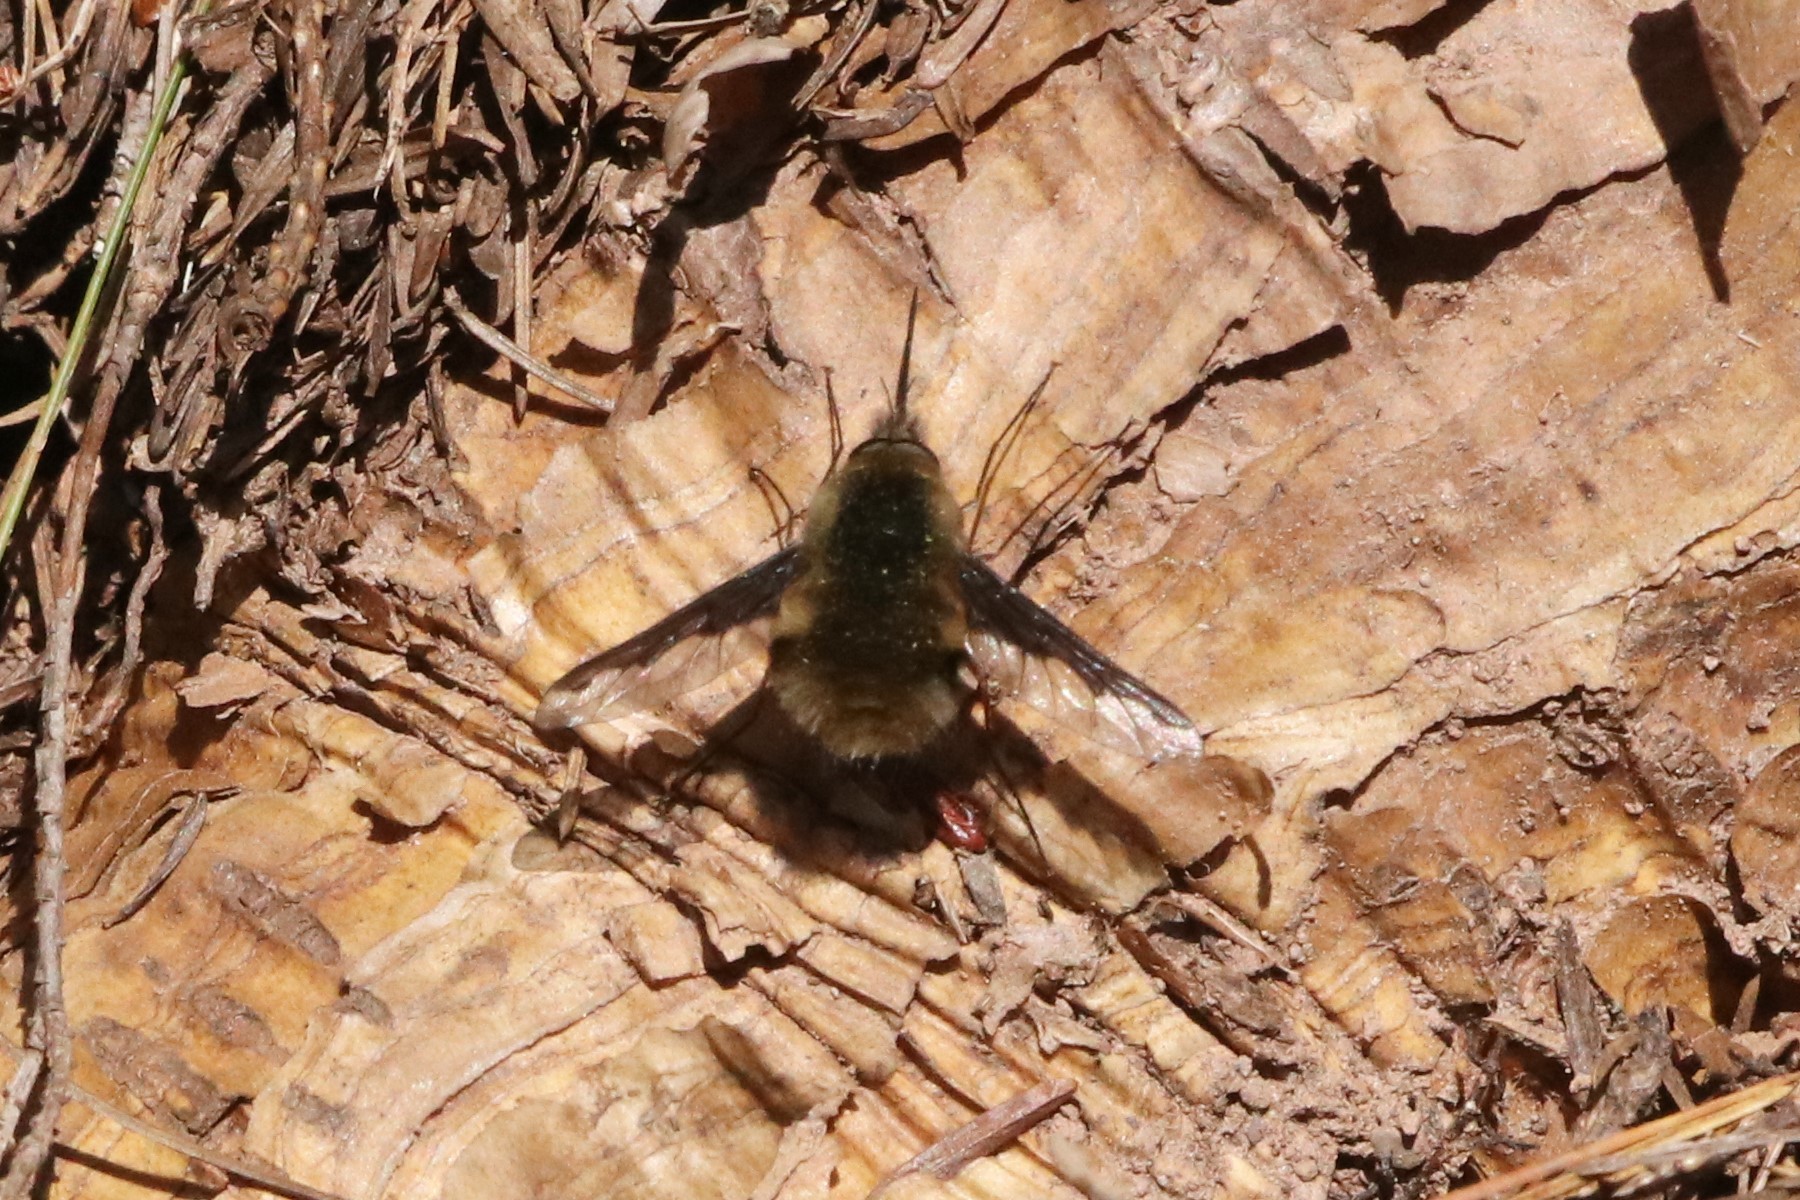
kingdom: Animalia
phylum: Arthropoda
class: Insecta
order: Diptera
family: Bombyliidae
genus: Bombylius
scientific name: Bombylius major
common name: Bee fly
